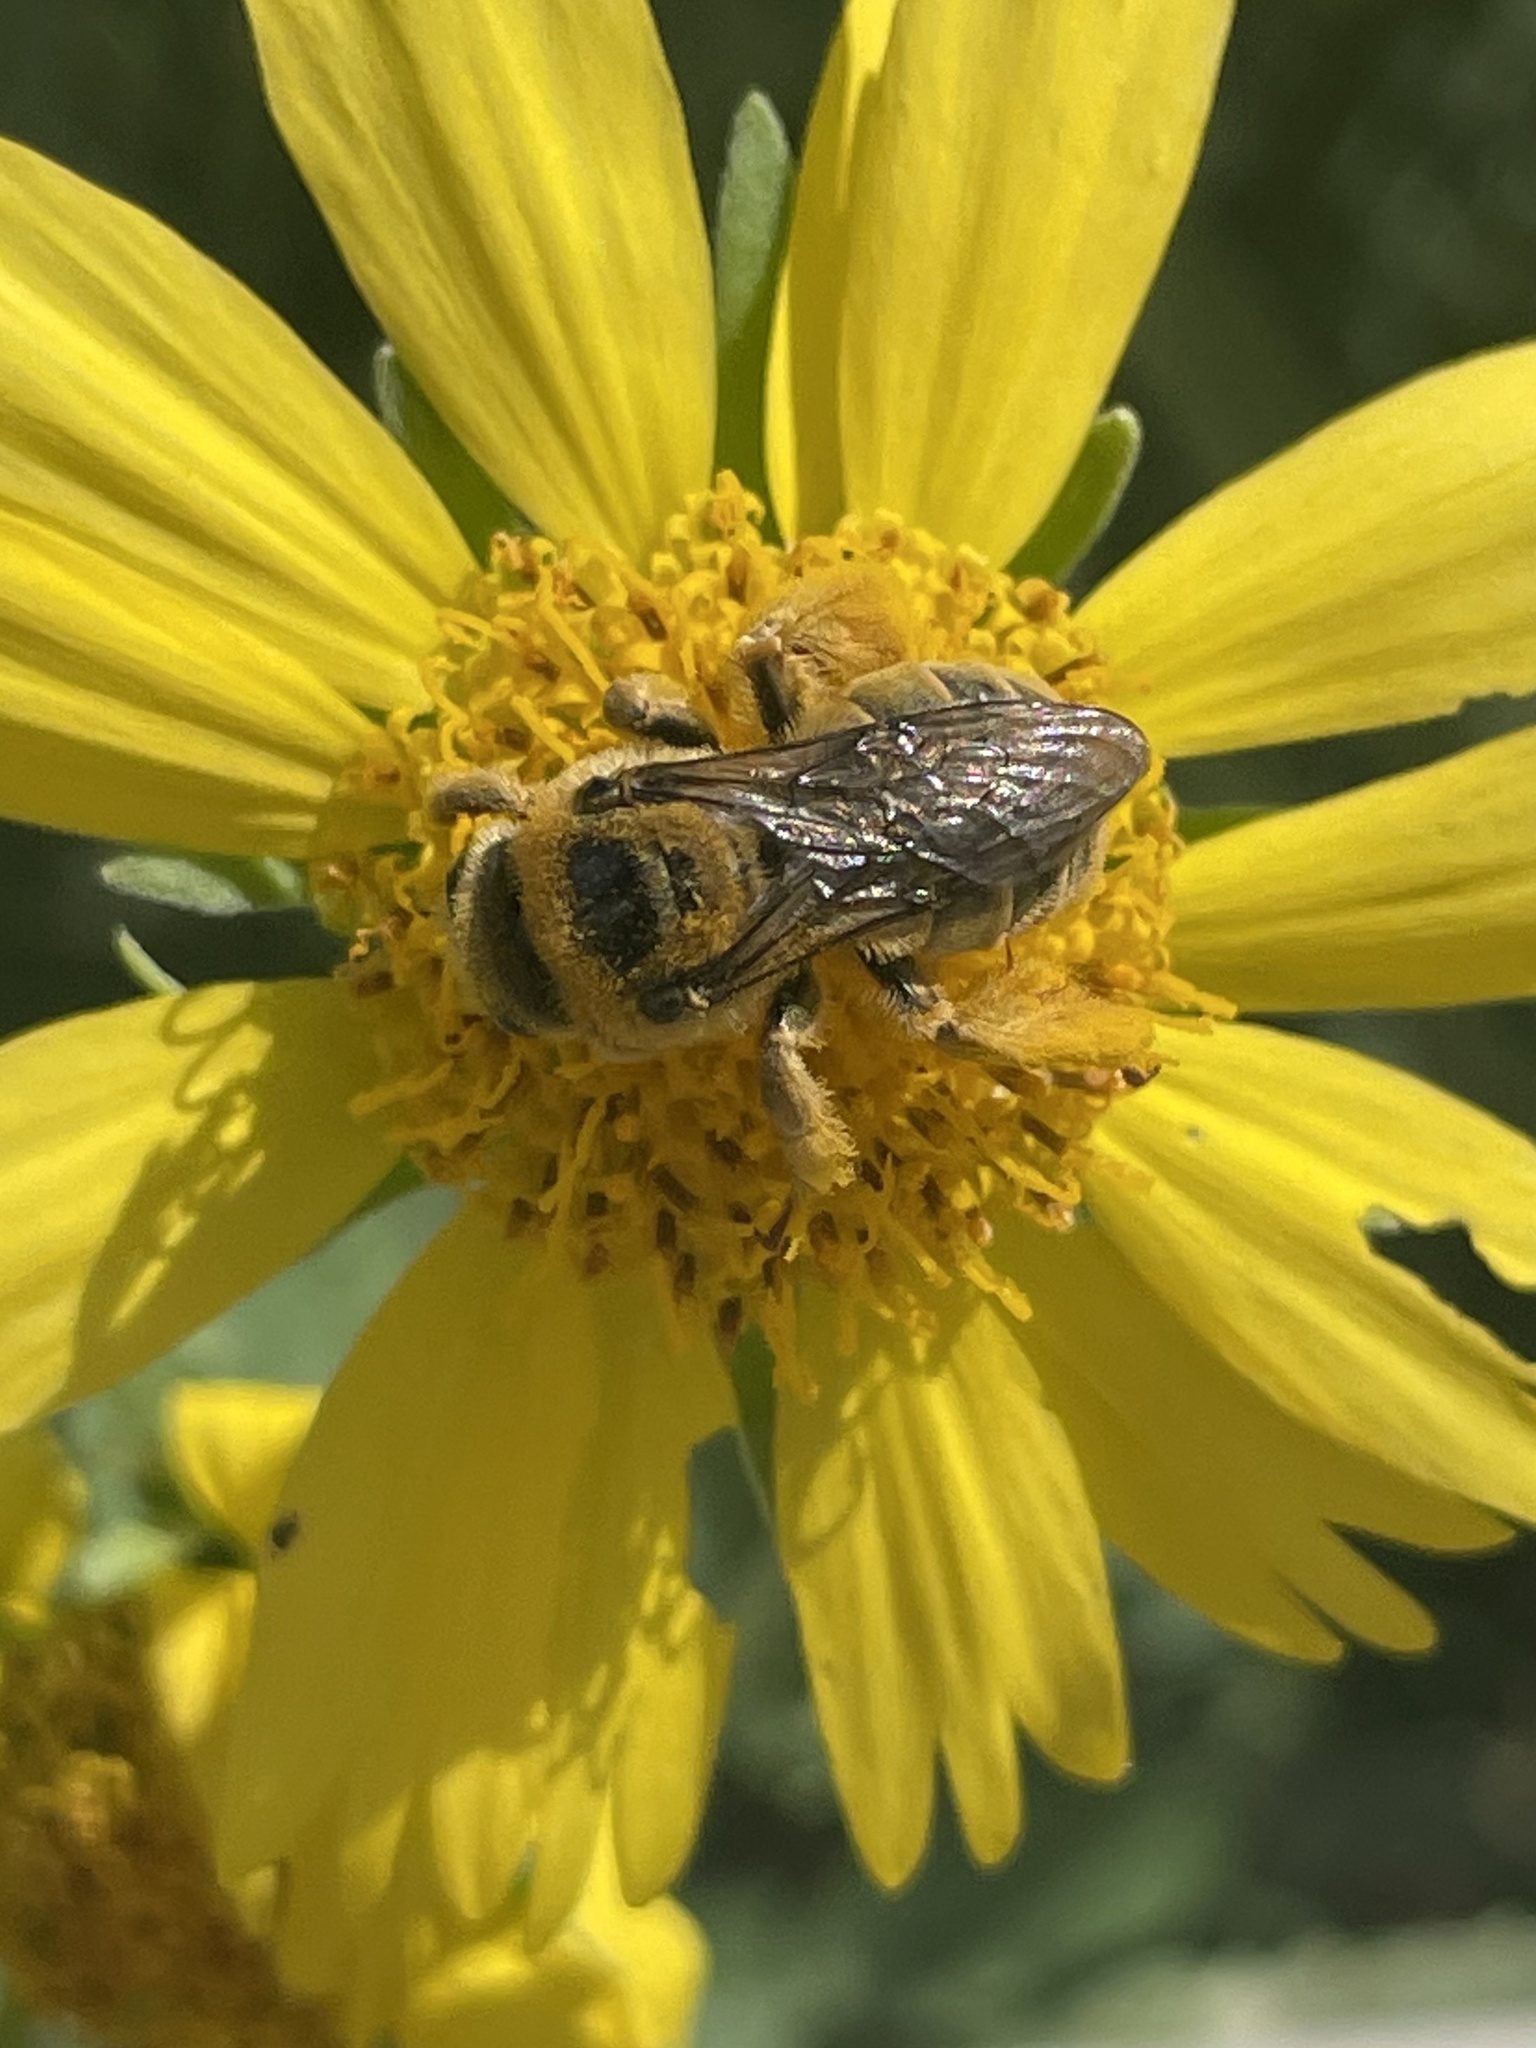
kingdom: Animalia
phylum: Arthropoda
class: Insecta
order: Hymenoptera
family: Apidae
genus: Diadasia
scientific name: Diadasia enavata
